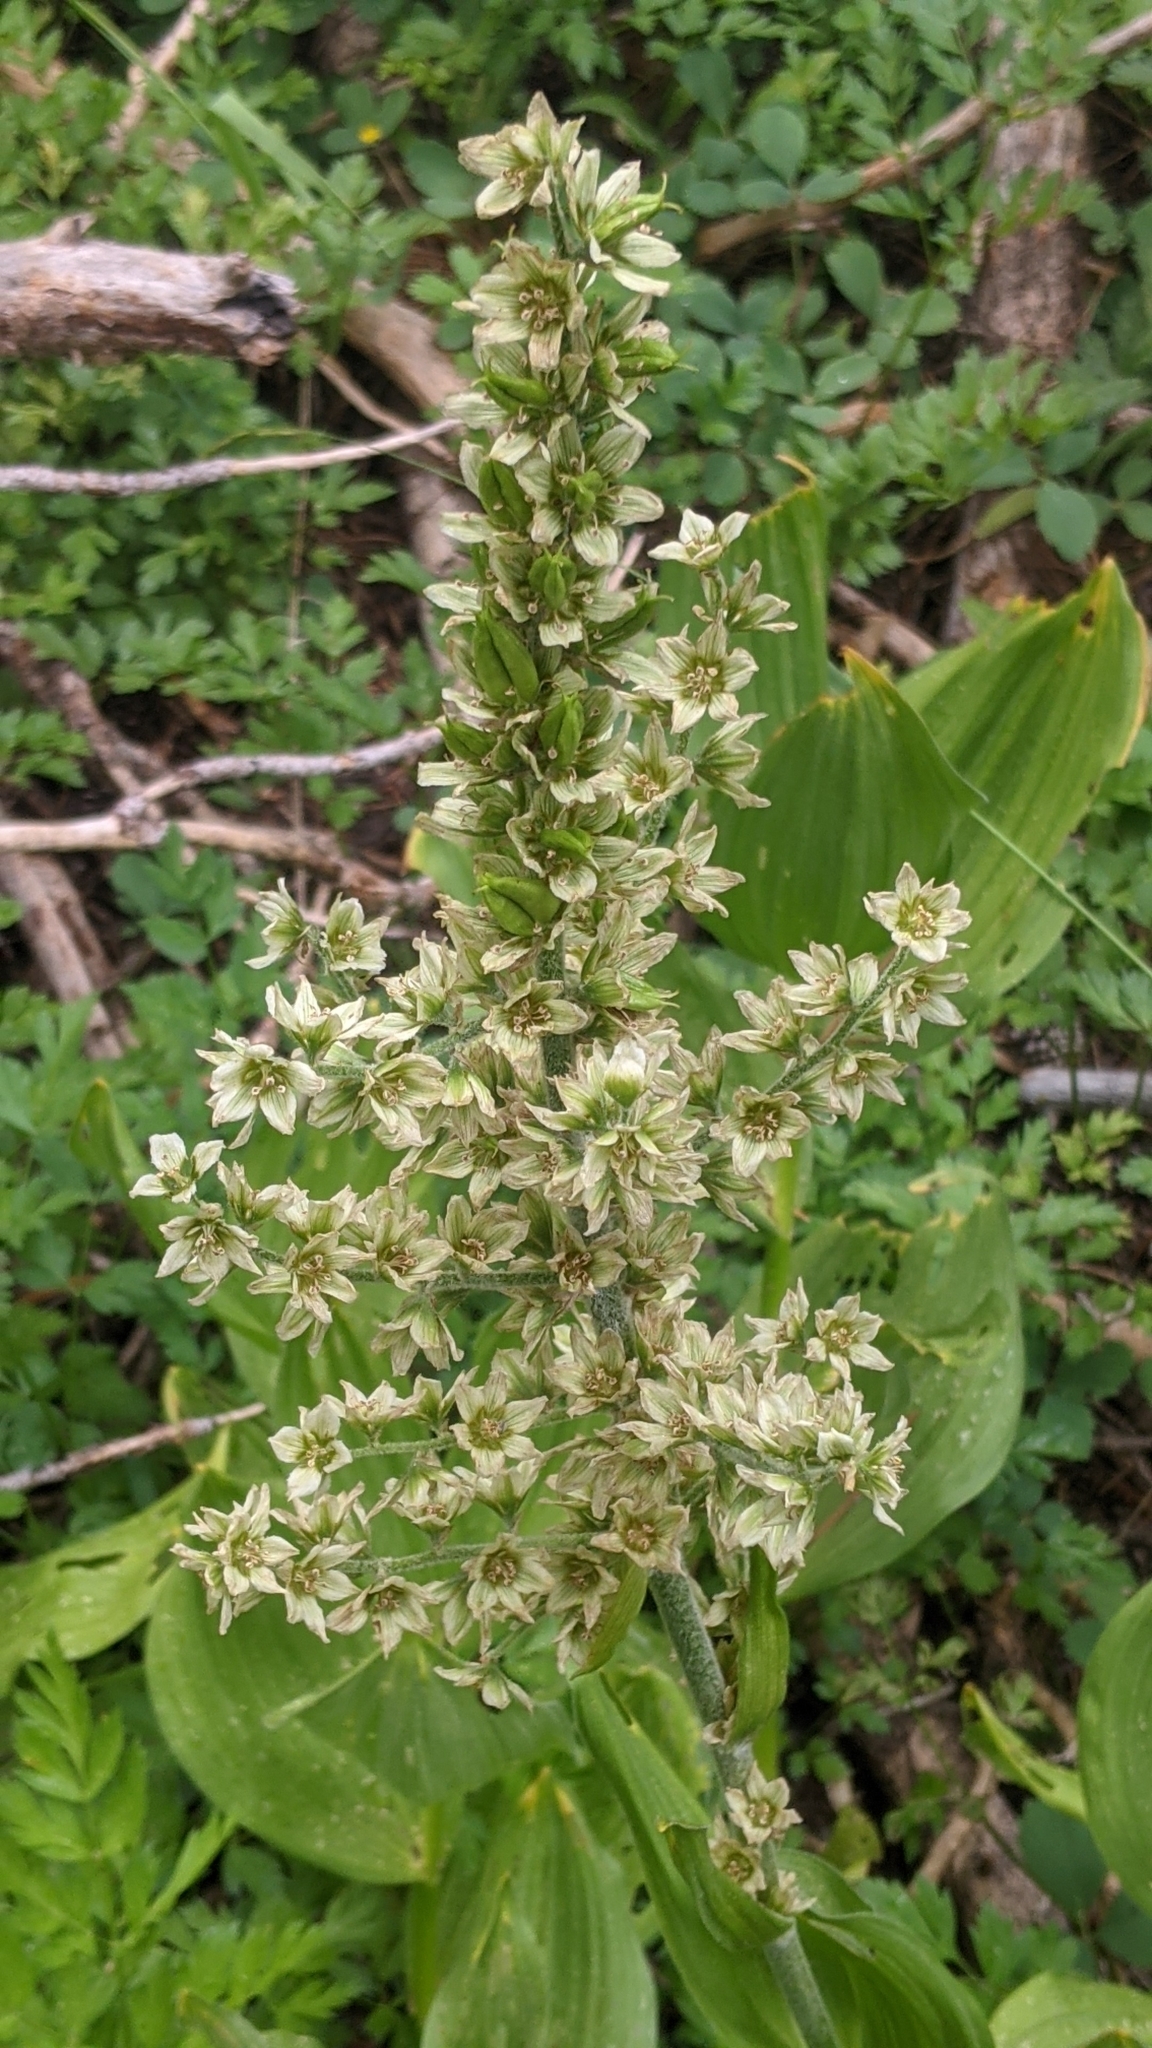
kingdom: Plantae
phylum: Tracheophyta
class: Liliopsida
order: Liliales
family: Melanthiaceae
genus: Veratrum
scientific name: Veratrum californicum
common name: California veratrum
